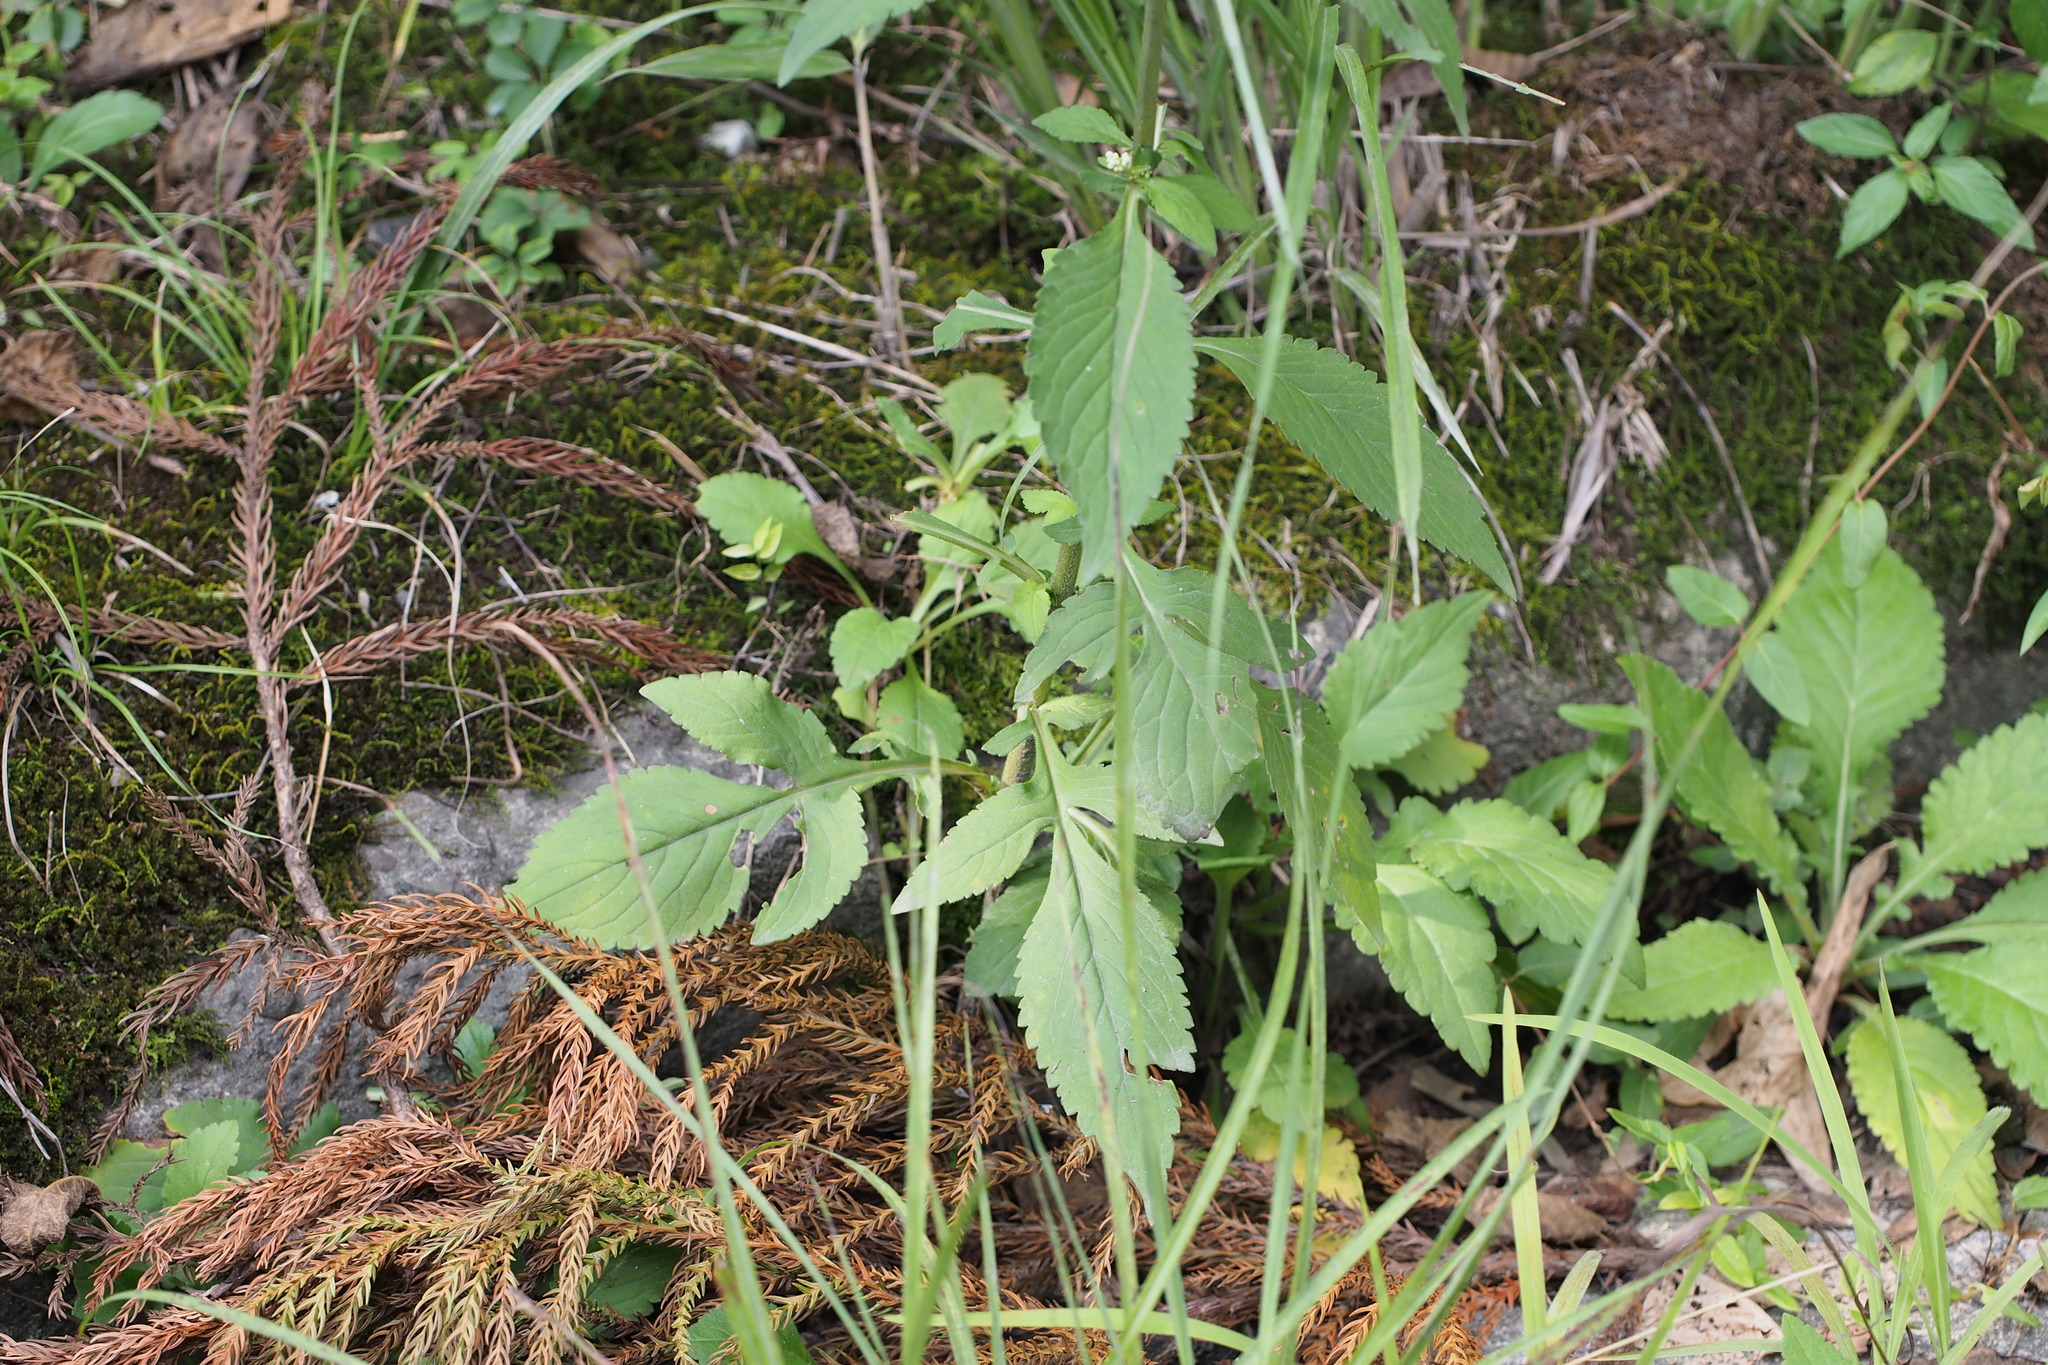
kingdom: Plantae
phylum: Tracheophyta
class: Magnoliopsida
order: Dipsacales
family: Caprifoliaceae
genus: Patrinia
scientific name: Patrinia villosa
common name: Patrinia
